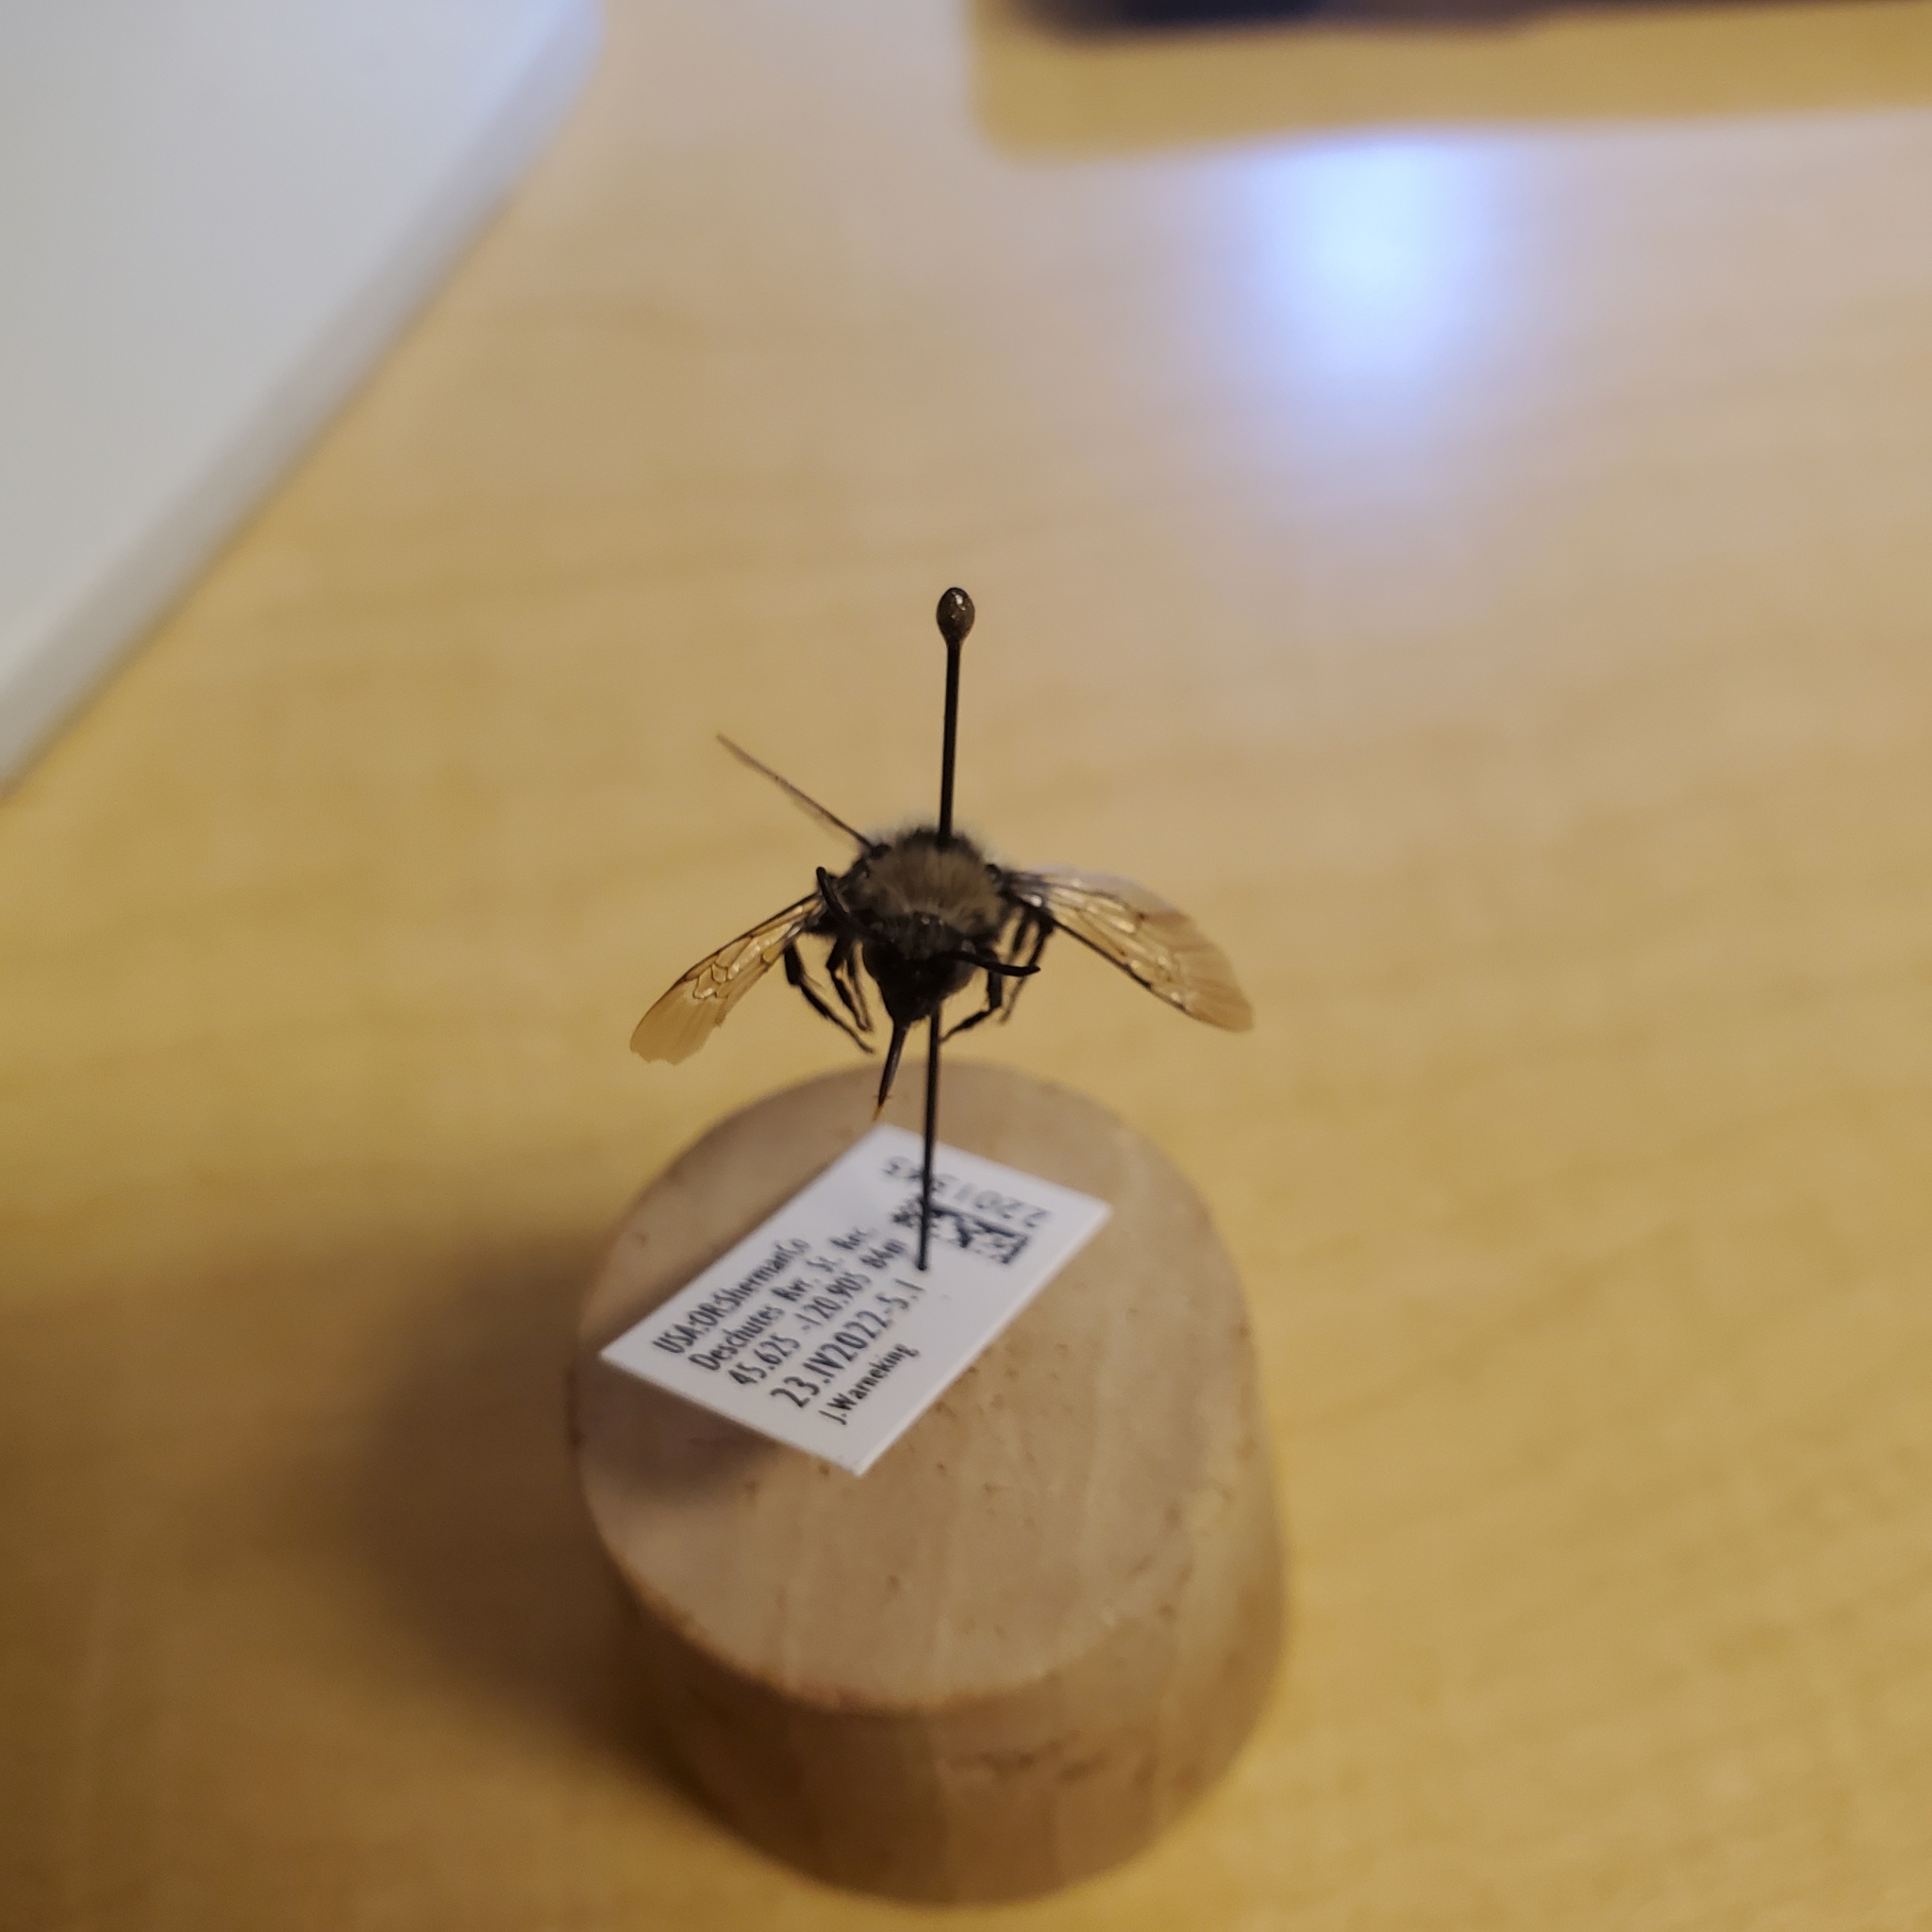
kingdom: Animalia
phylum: Arthropoda
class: Insecta
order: Hymenoptera
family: Apidae
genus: Melecta
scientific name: Melecta separata
